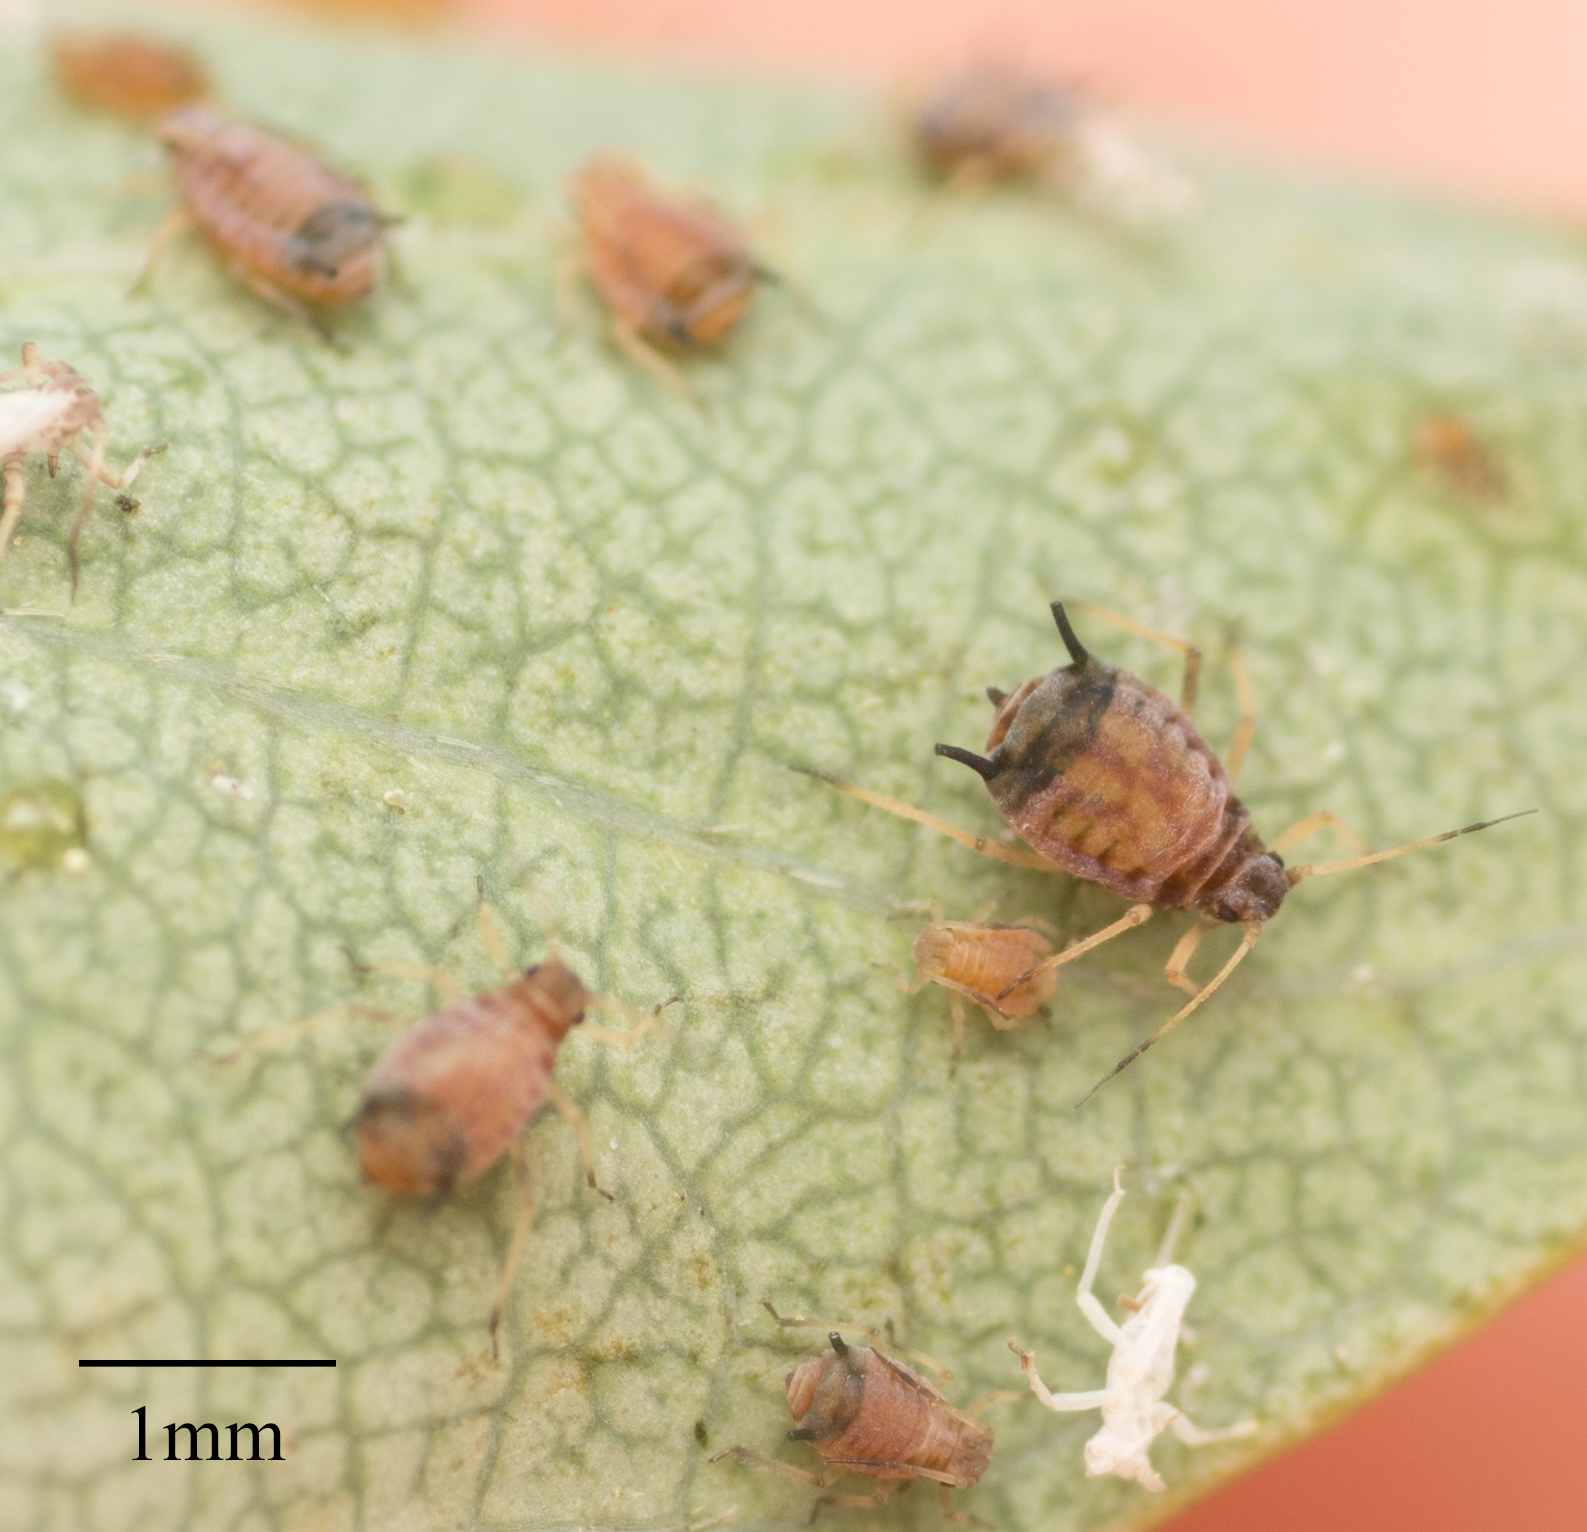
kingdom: Animalia
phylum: Arthropoda
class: Insecta
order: Hemiptera
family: Aphididae
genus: Aphis
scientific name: Aphis ceanothi
